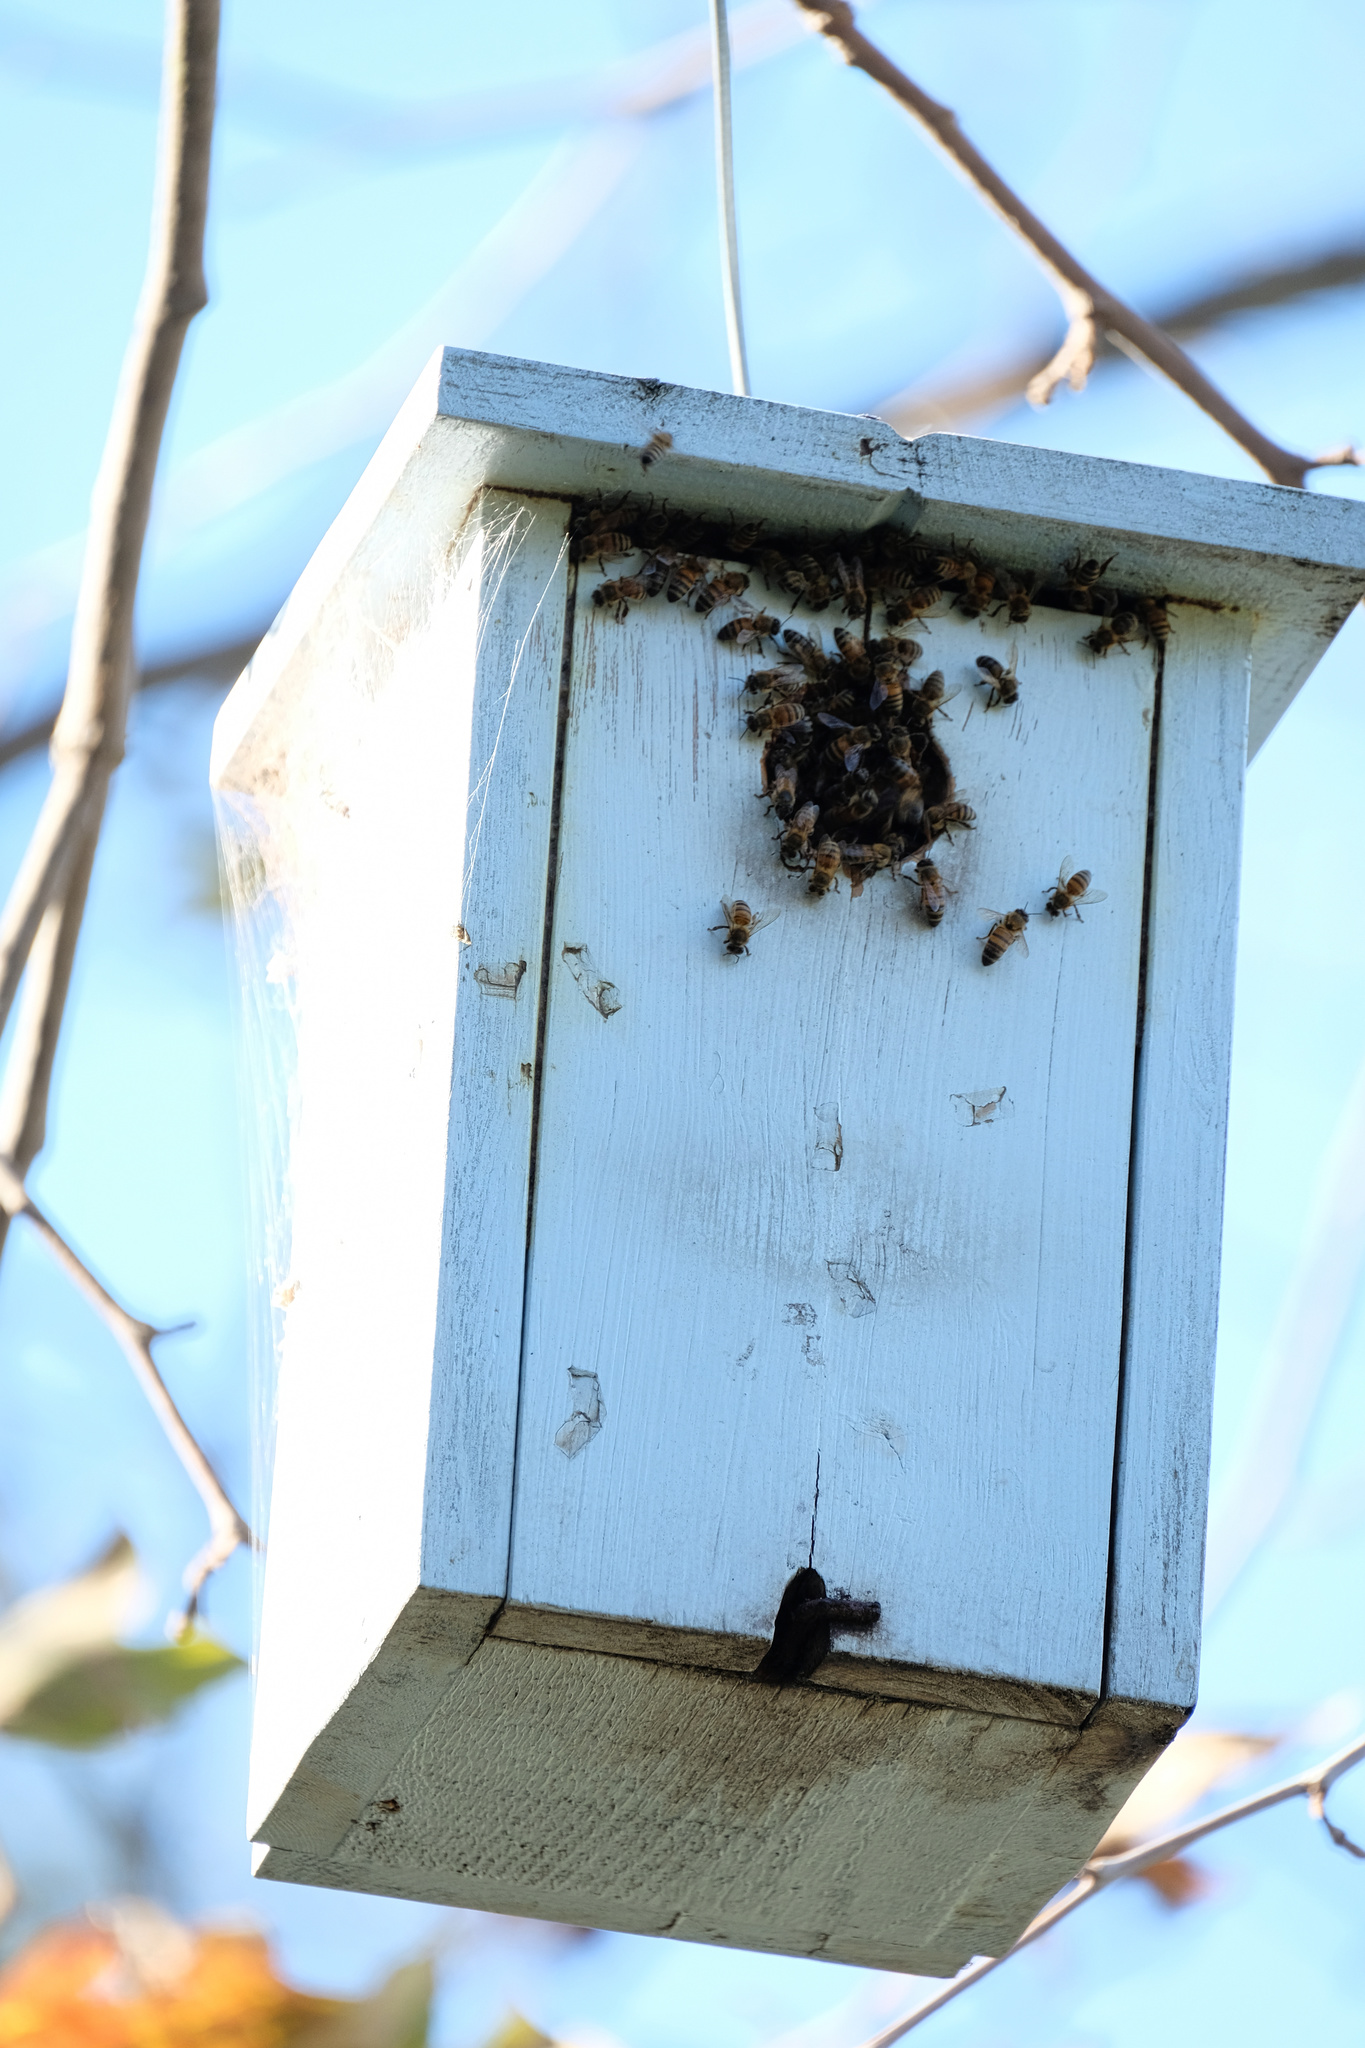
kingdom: Animalia
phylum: Arthropoda
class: Insecta
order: Hymenoptera
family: Apidae
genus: Apis
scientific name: Apis mellifera
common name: Honey bee
